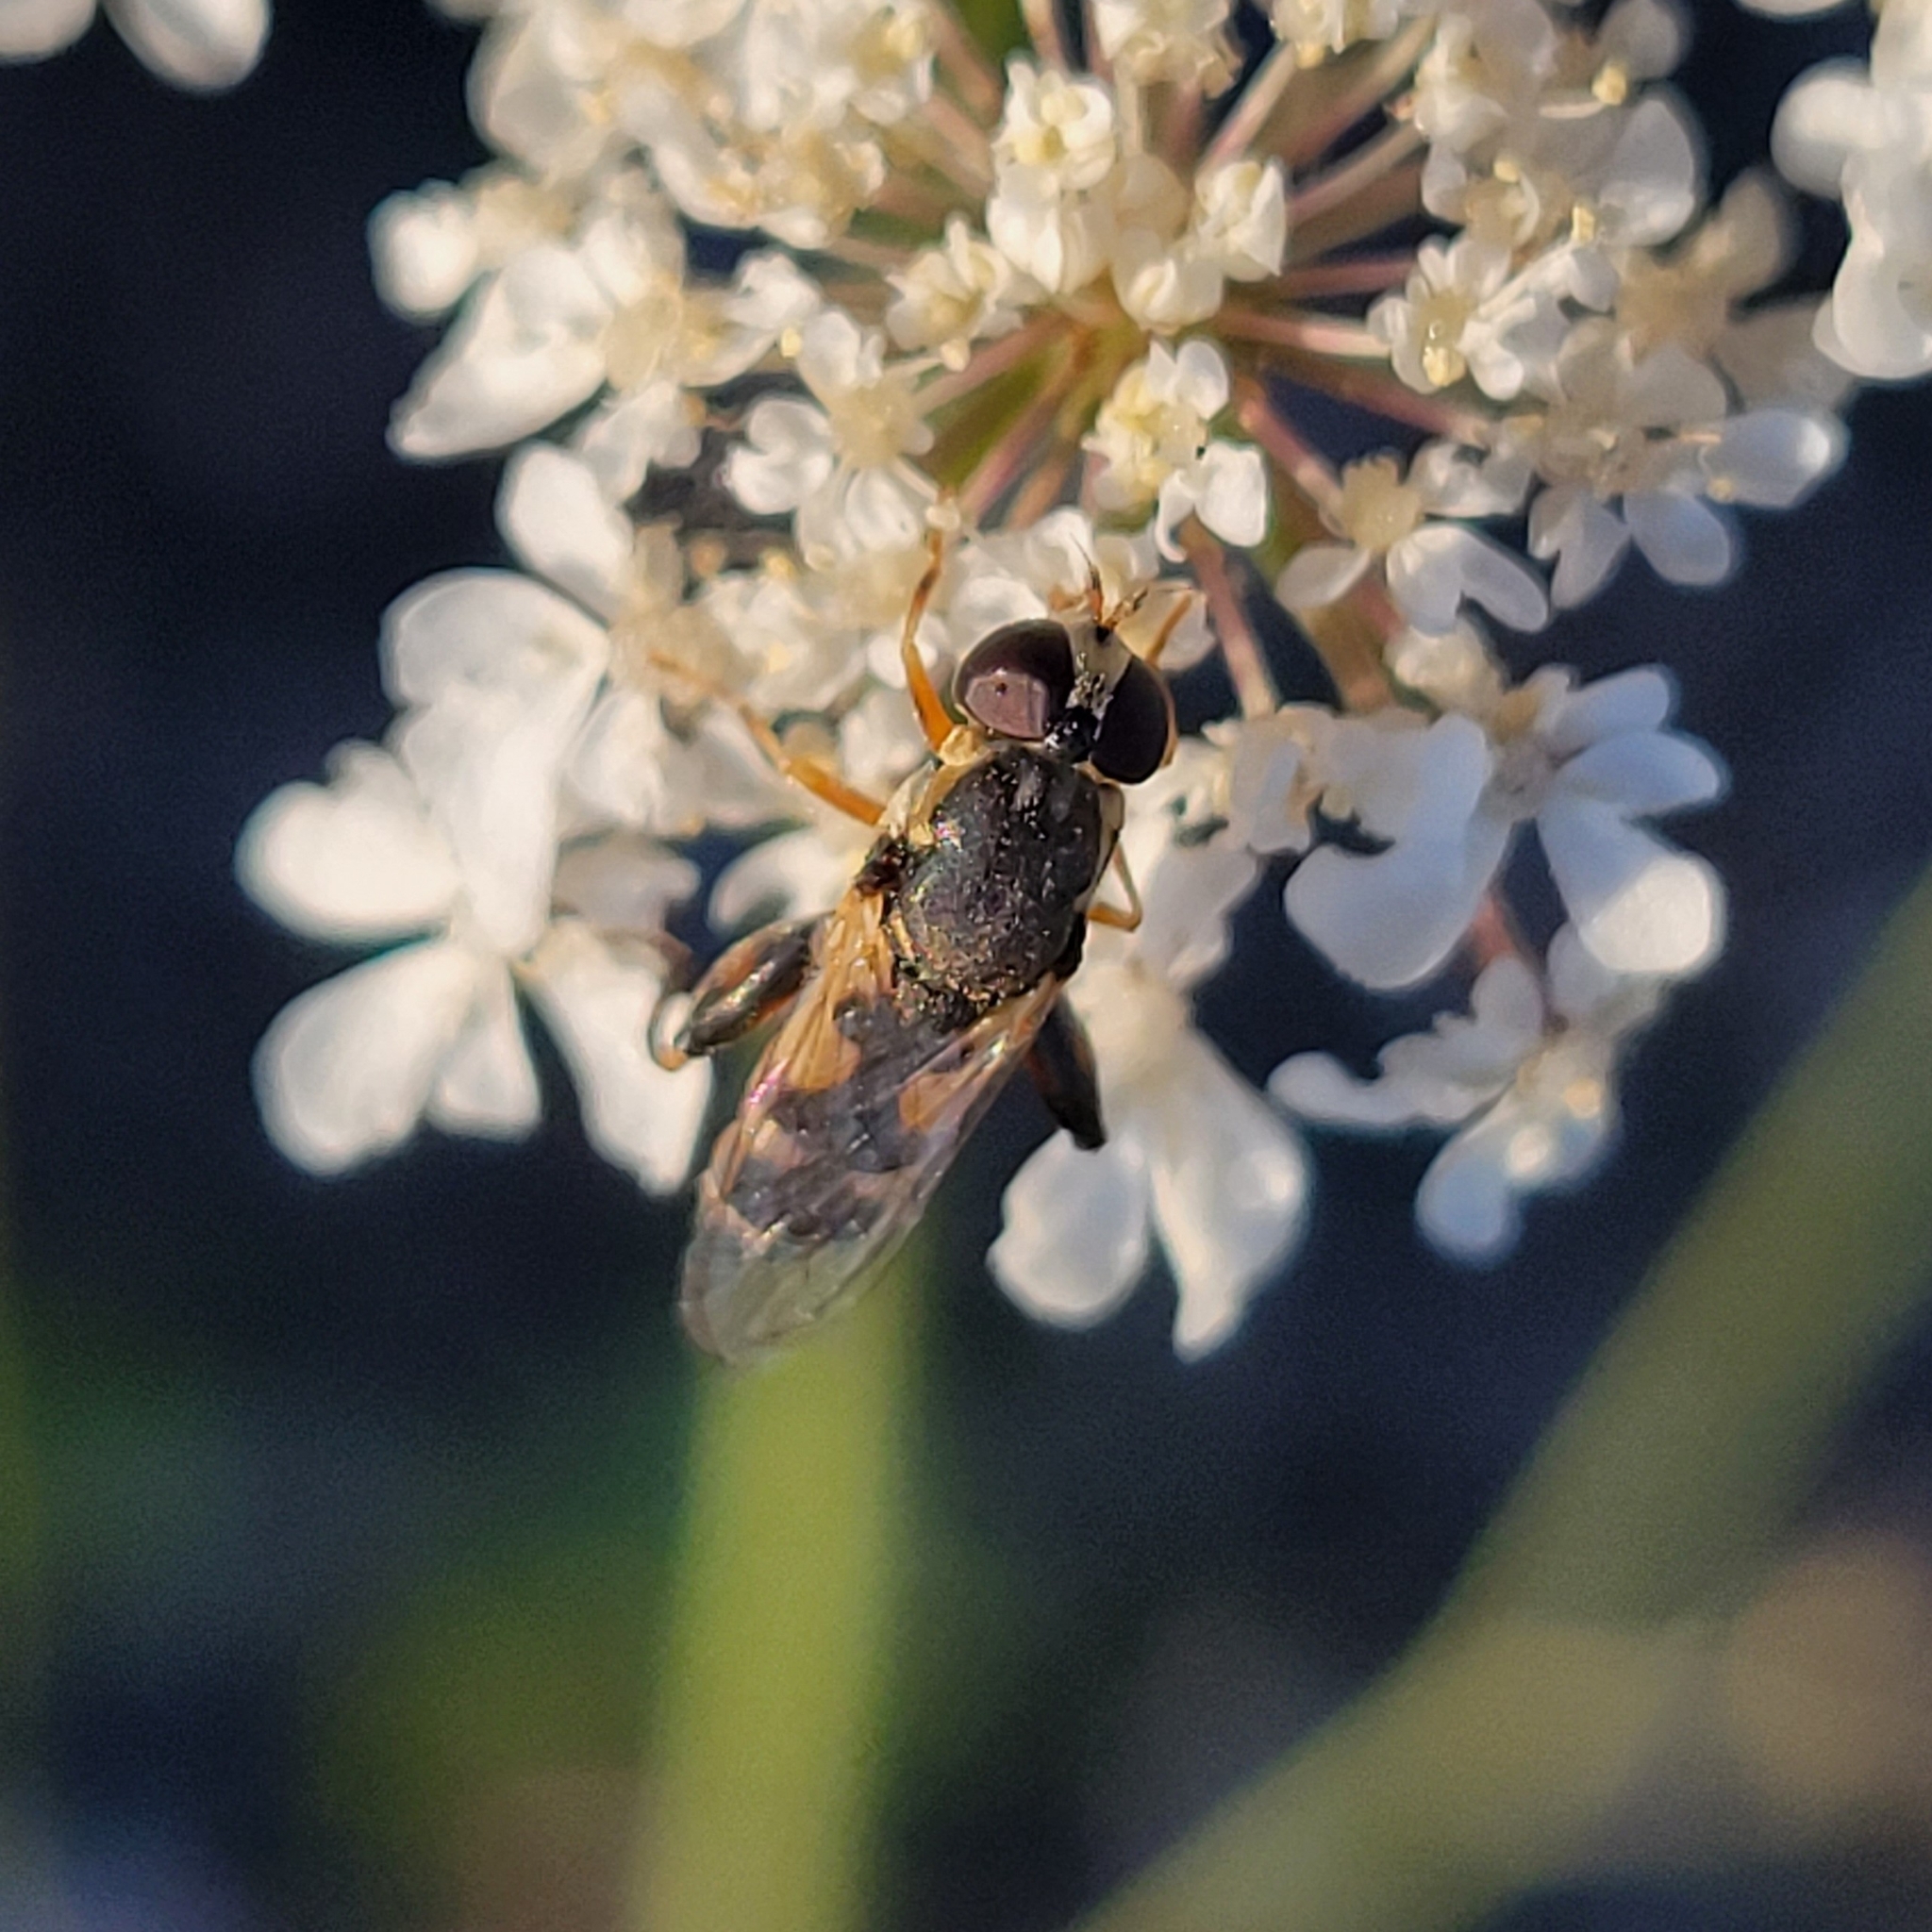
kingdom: Animalia
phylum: Arthropoda
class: Insecta
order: Diptera
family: Syrphidae
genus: Syritta
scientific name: Syritta pipiens
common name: Hover fly
